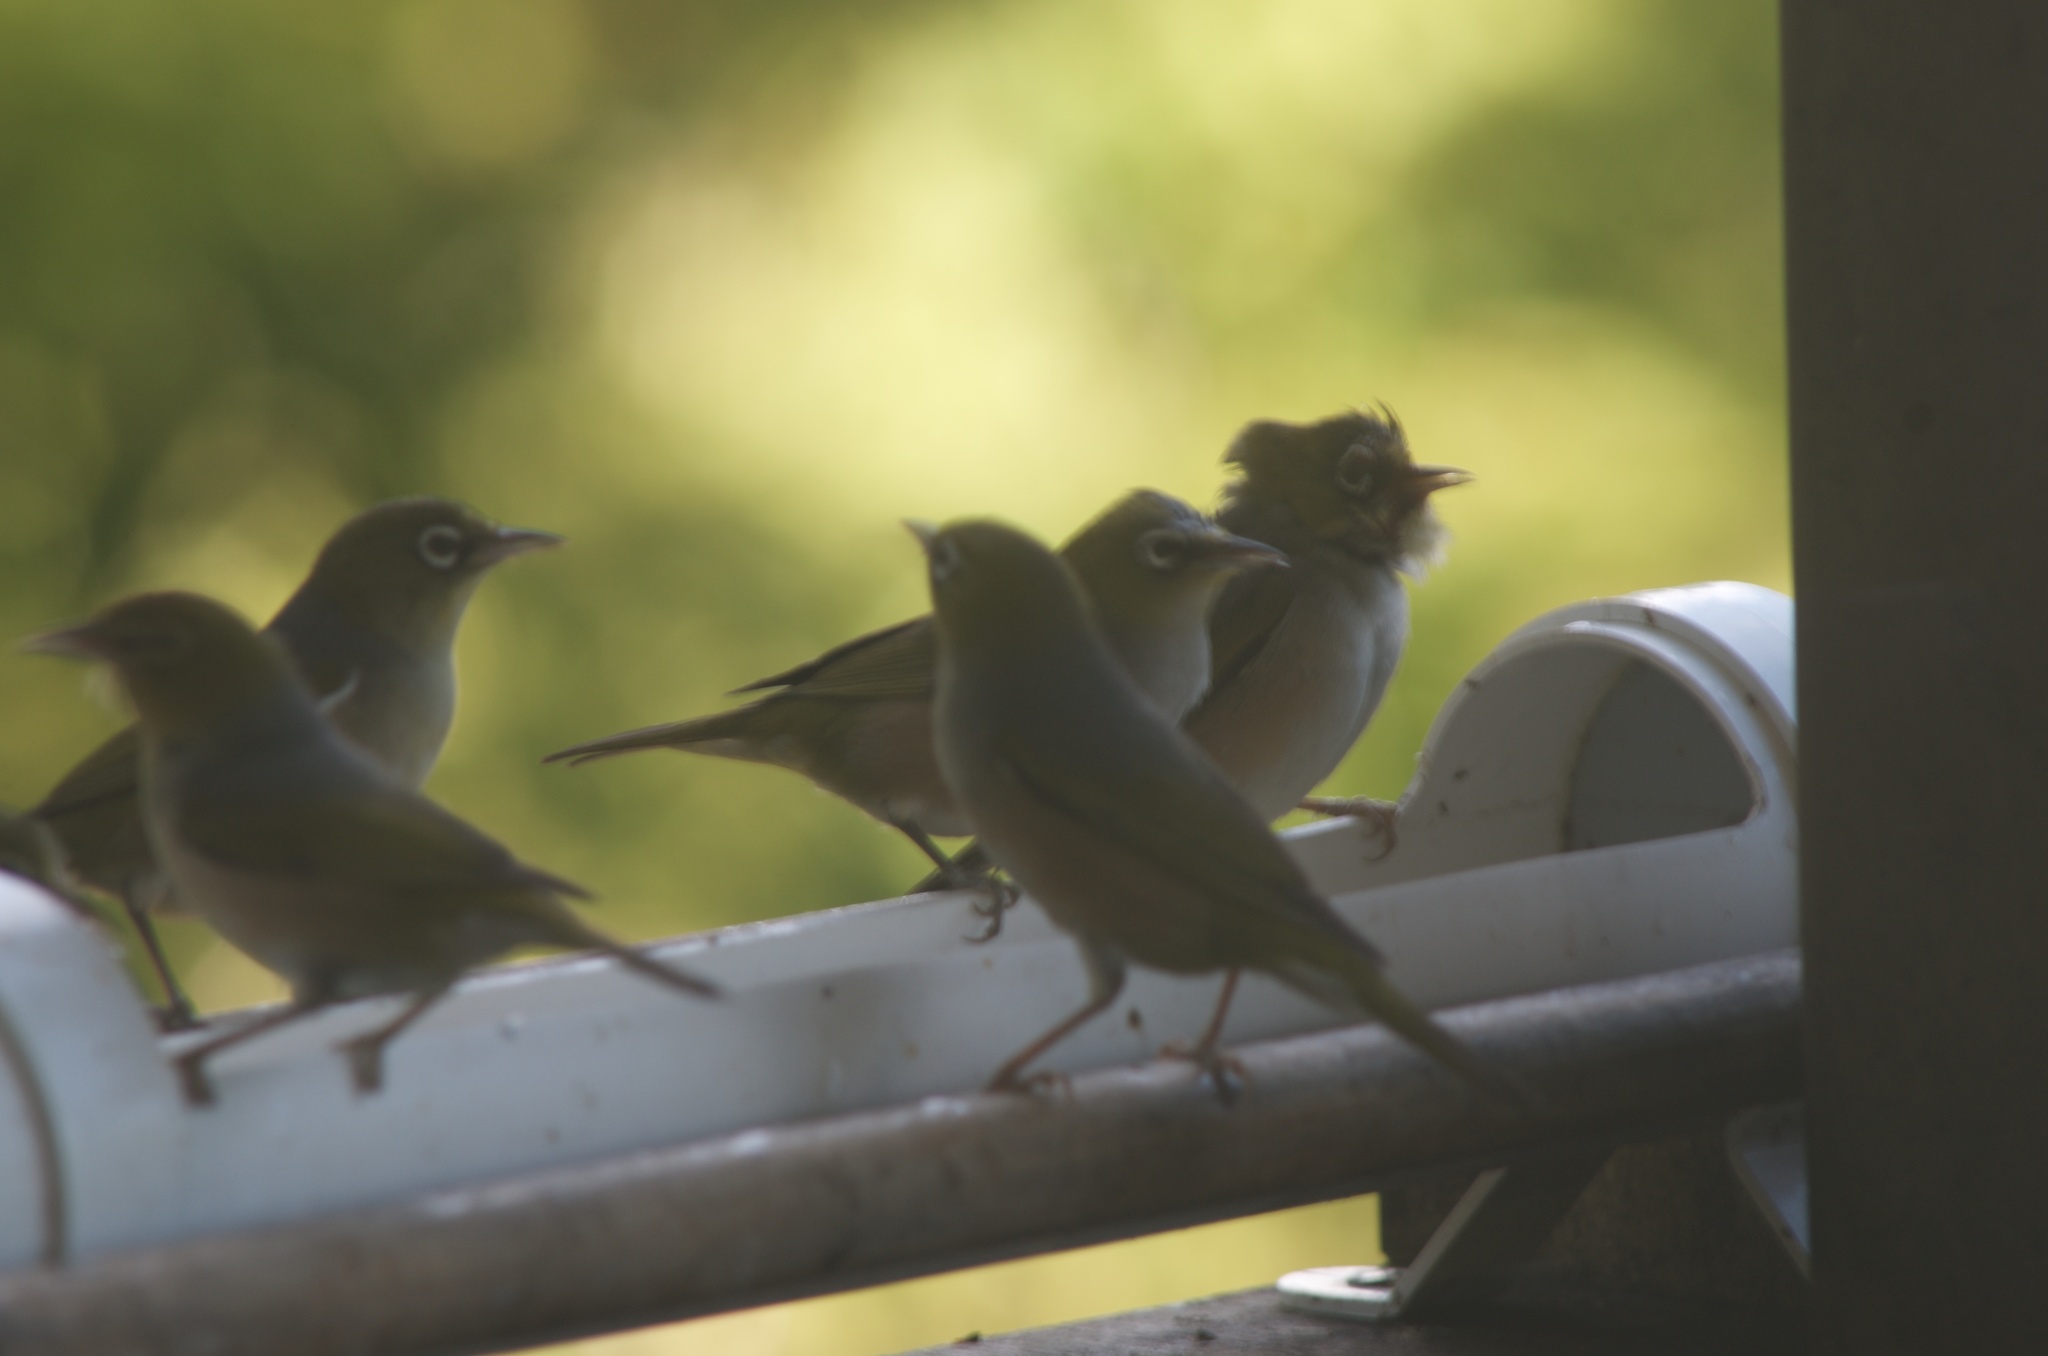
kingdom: Animalia
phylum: Chordata
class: Aves
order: Passeriformes
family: Zosteropidae
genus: Zosterops
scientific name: Zosterops lateralis
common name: Silvereye
